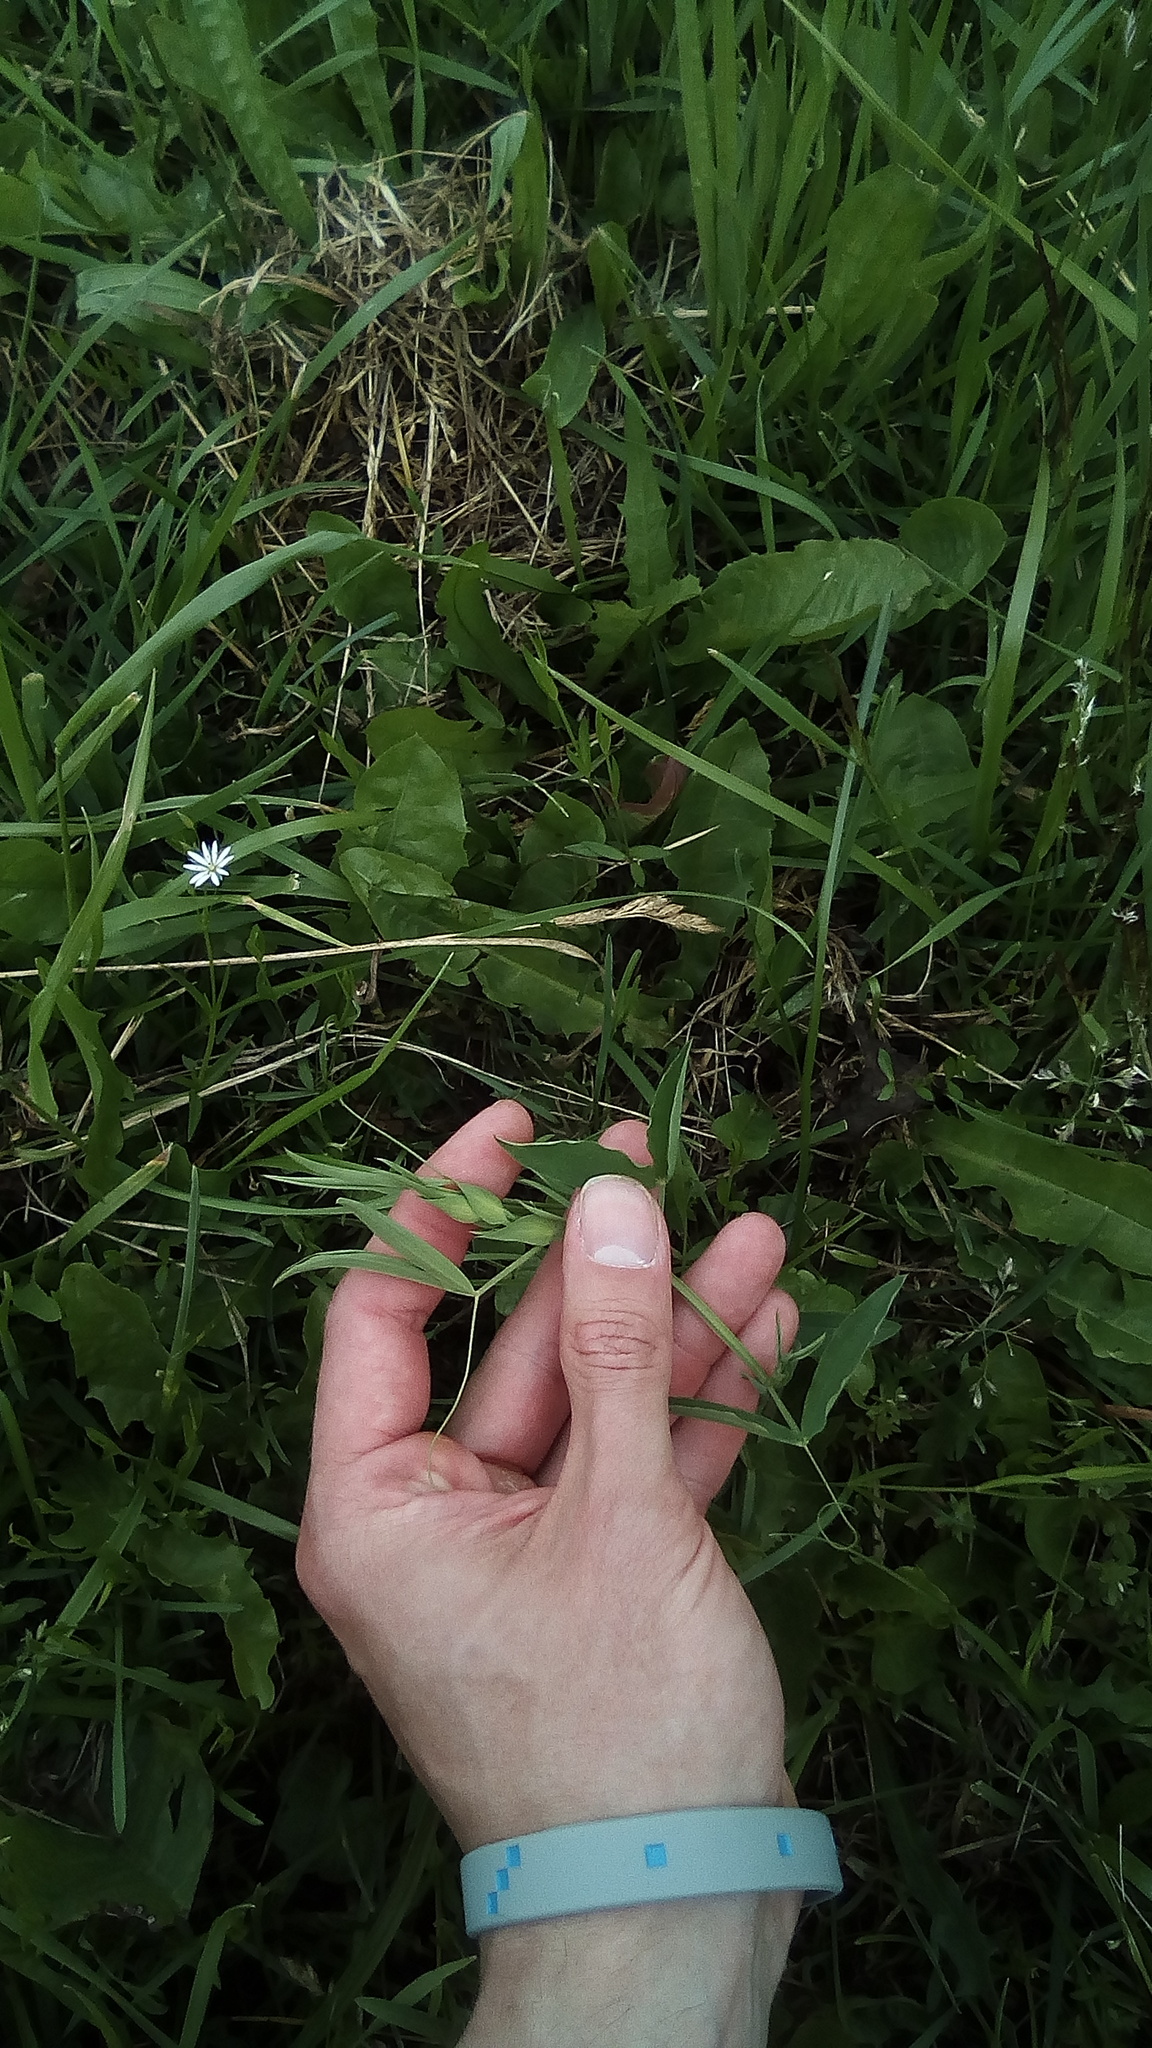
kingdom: Plantae
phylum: Tracheophyta
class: Magnoliopsida
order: Fabales
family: Fabaceae
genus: Lathyrus
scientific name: Lathyrus pratensis
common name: Meadow vetchling
